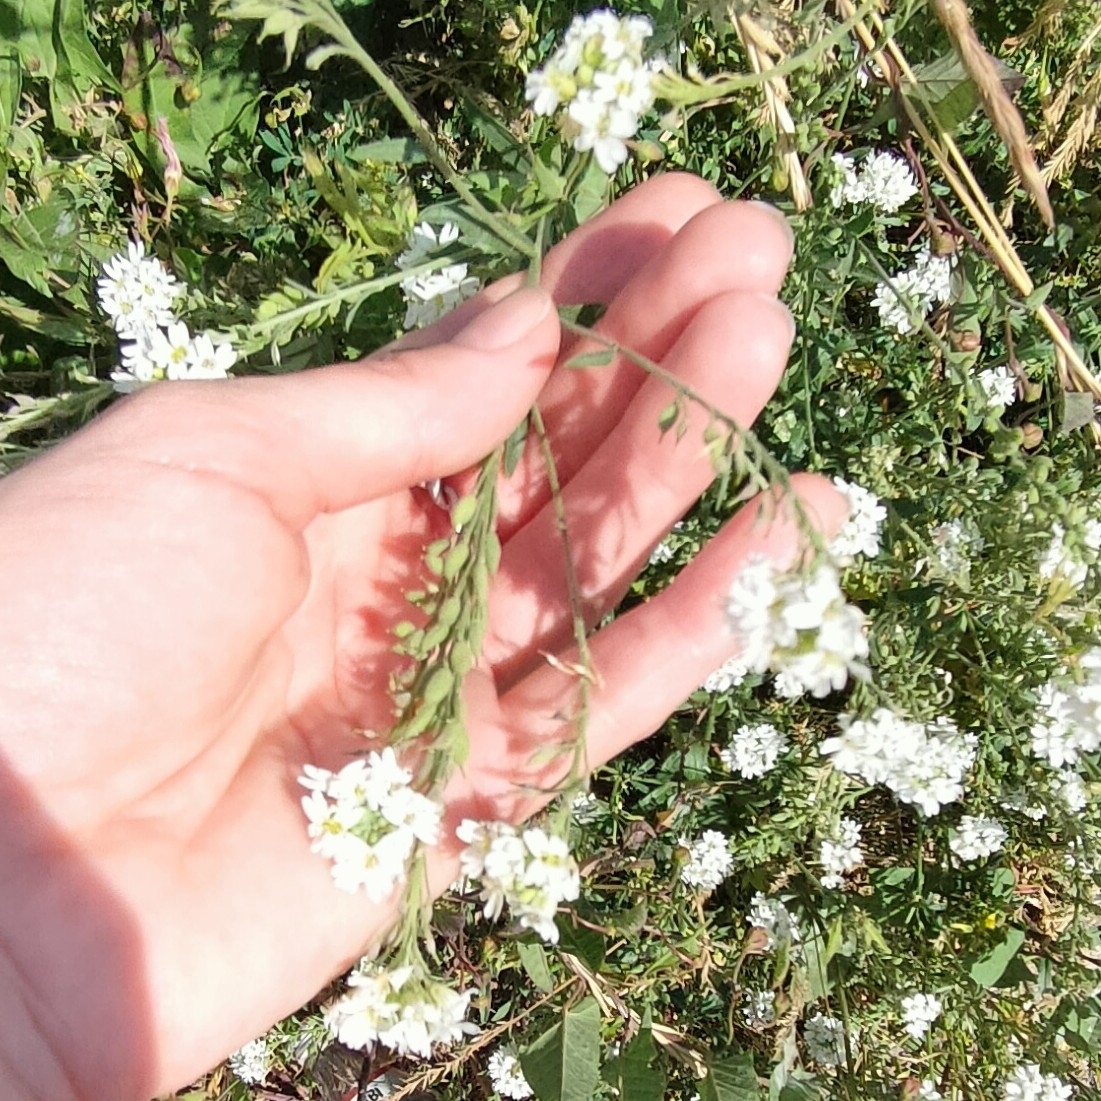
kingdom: Plantae
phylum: Tracheophyta
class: Magnoliopsida
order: Brassicales
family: Brassicaceae
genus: Berteroa
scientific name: Berteroa incana
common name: Hoary alison
